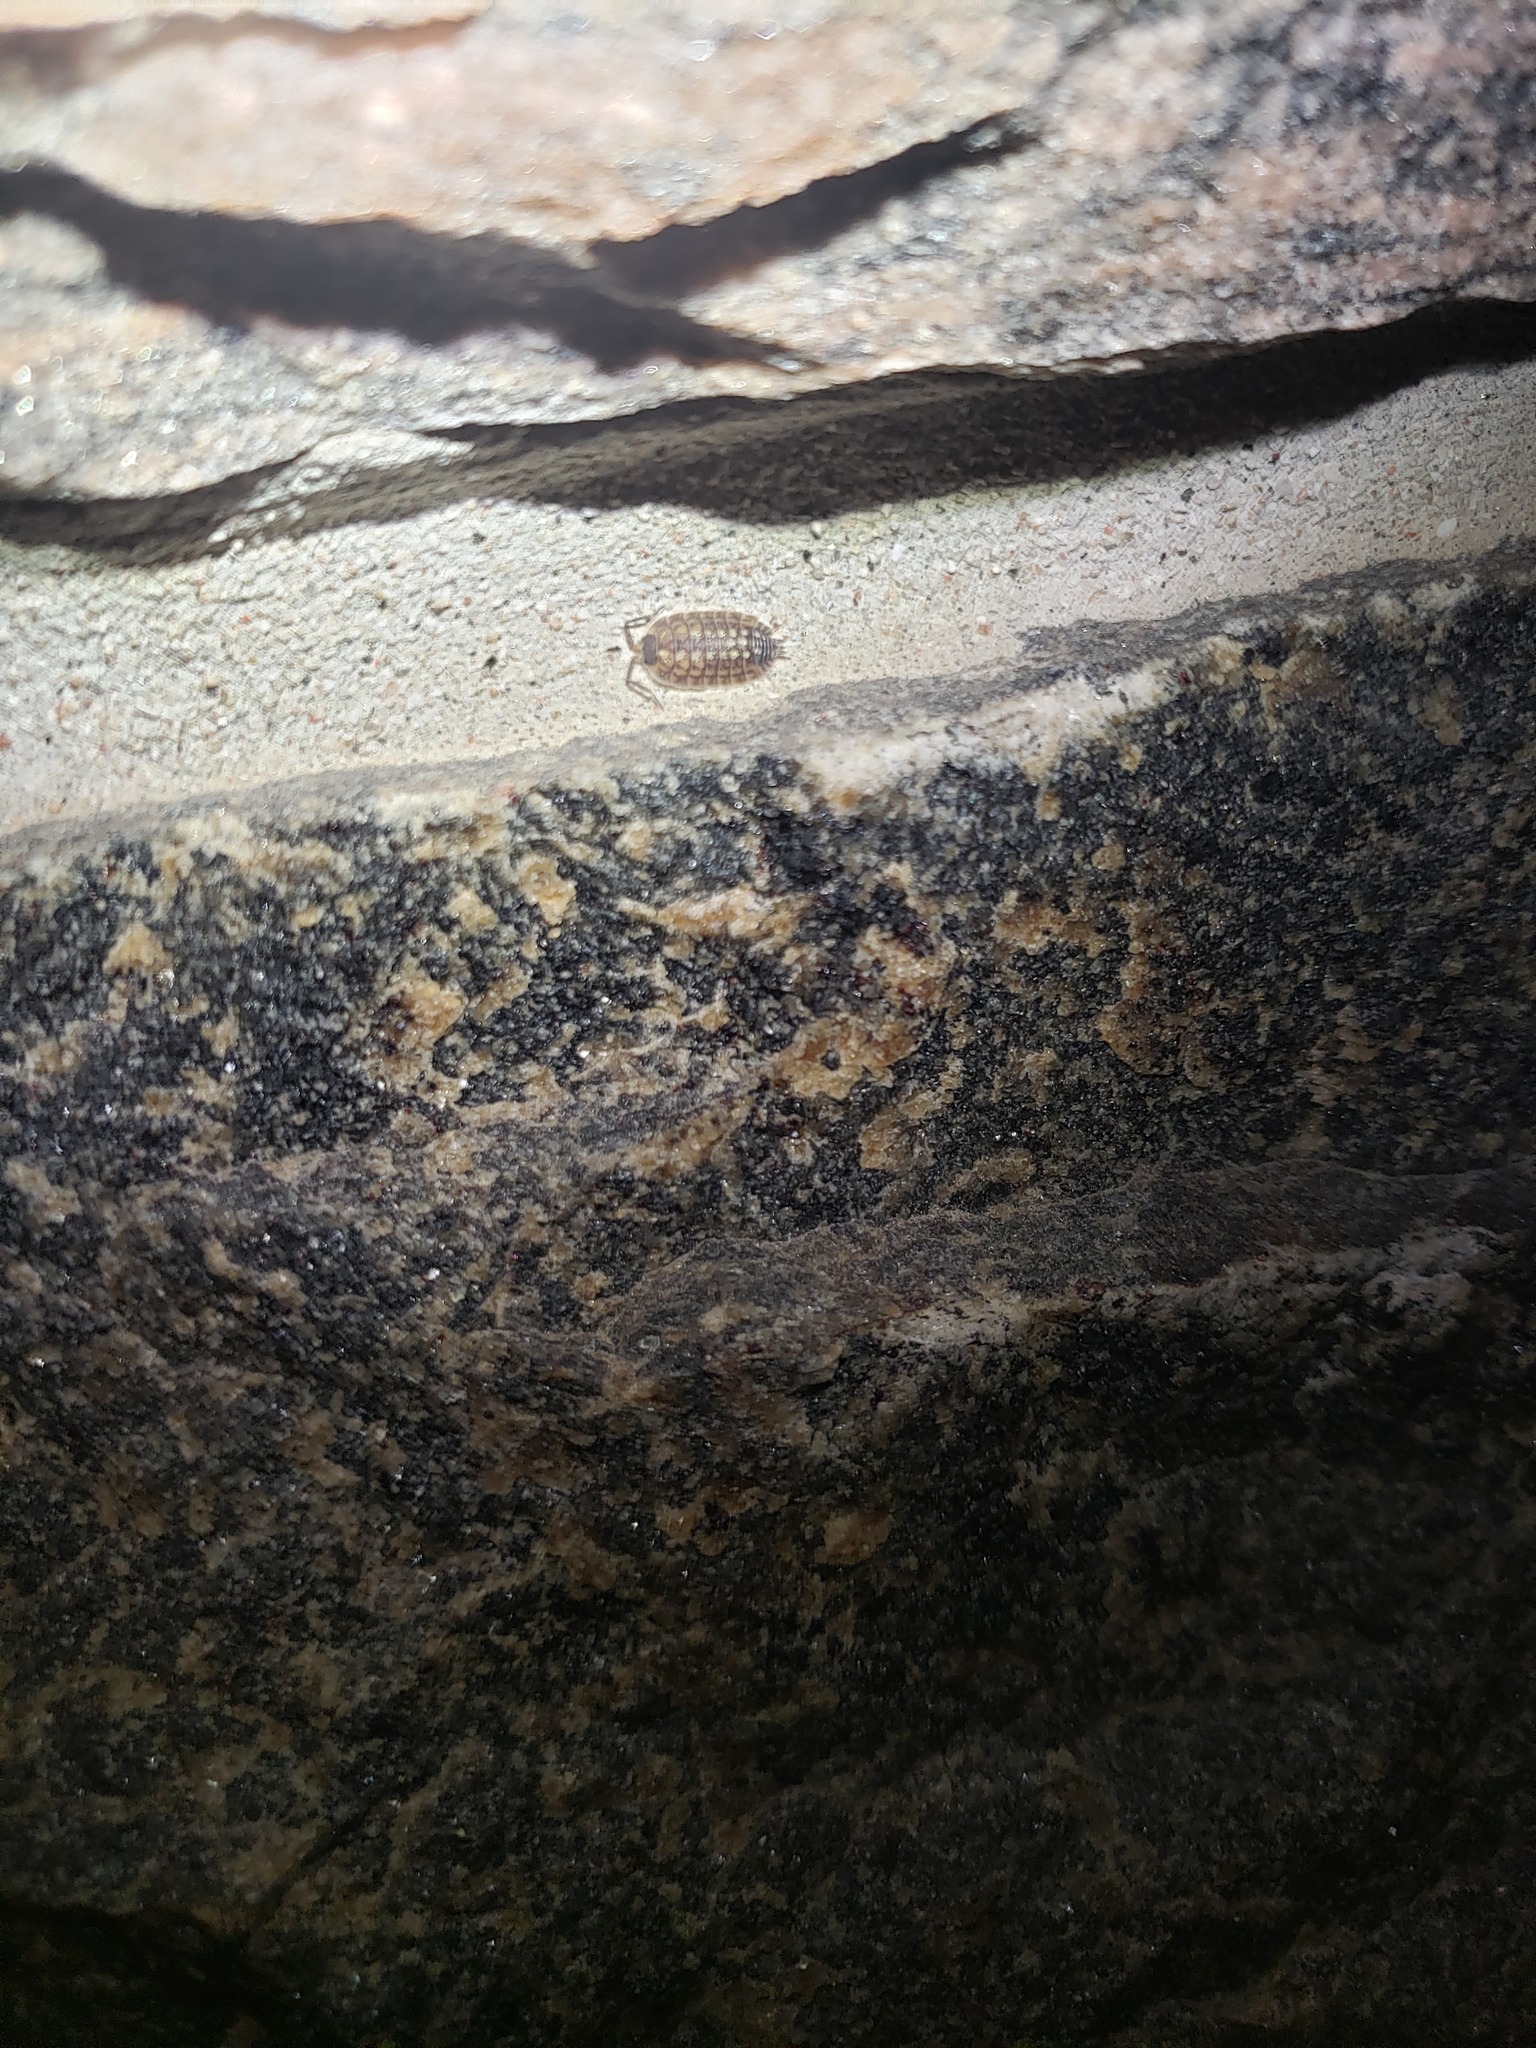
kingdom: Animalia
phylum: Arthropoda
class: Malacostraca
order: Isopoda
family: Porcellionidae
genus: Porcellio
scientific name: Porcellio spinicornis
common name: Painted woodlouse
